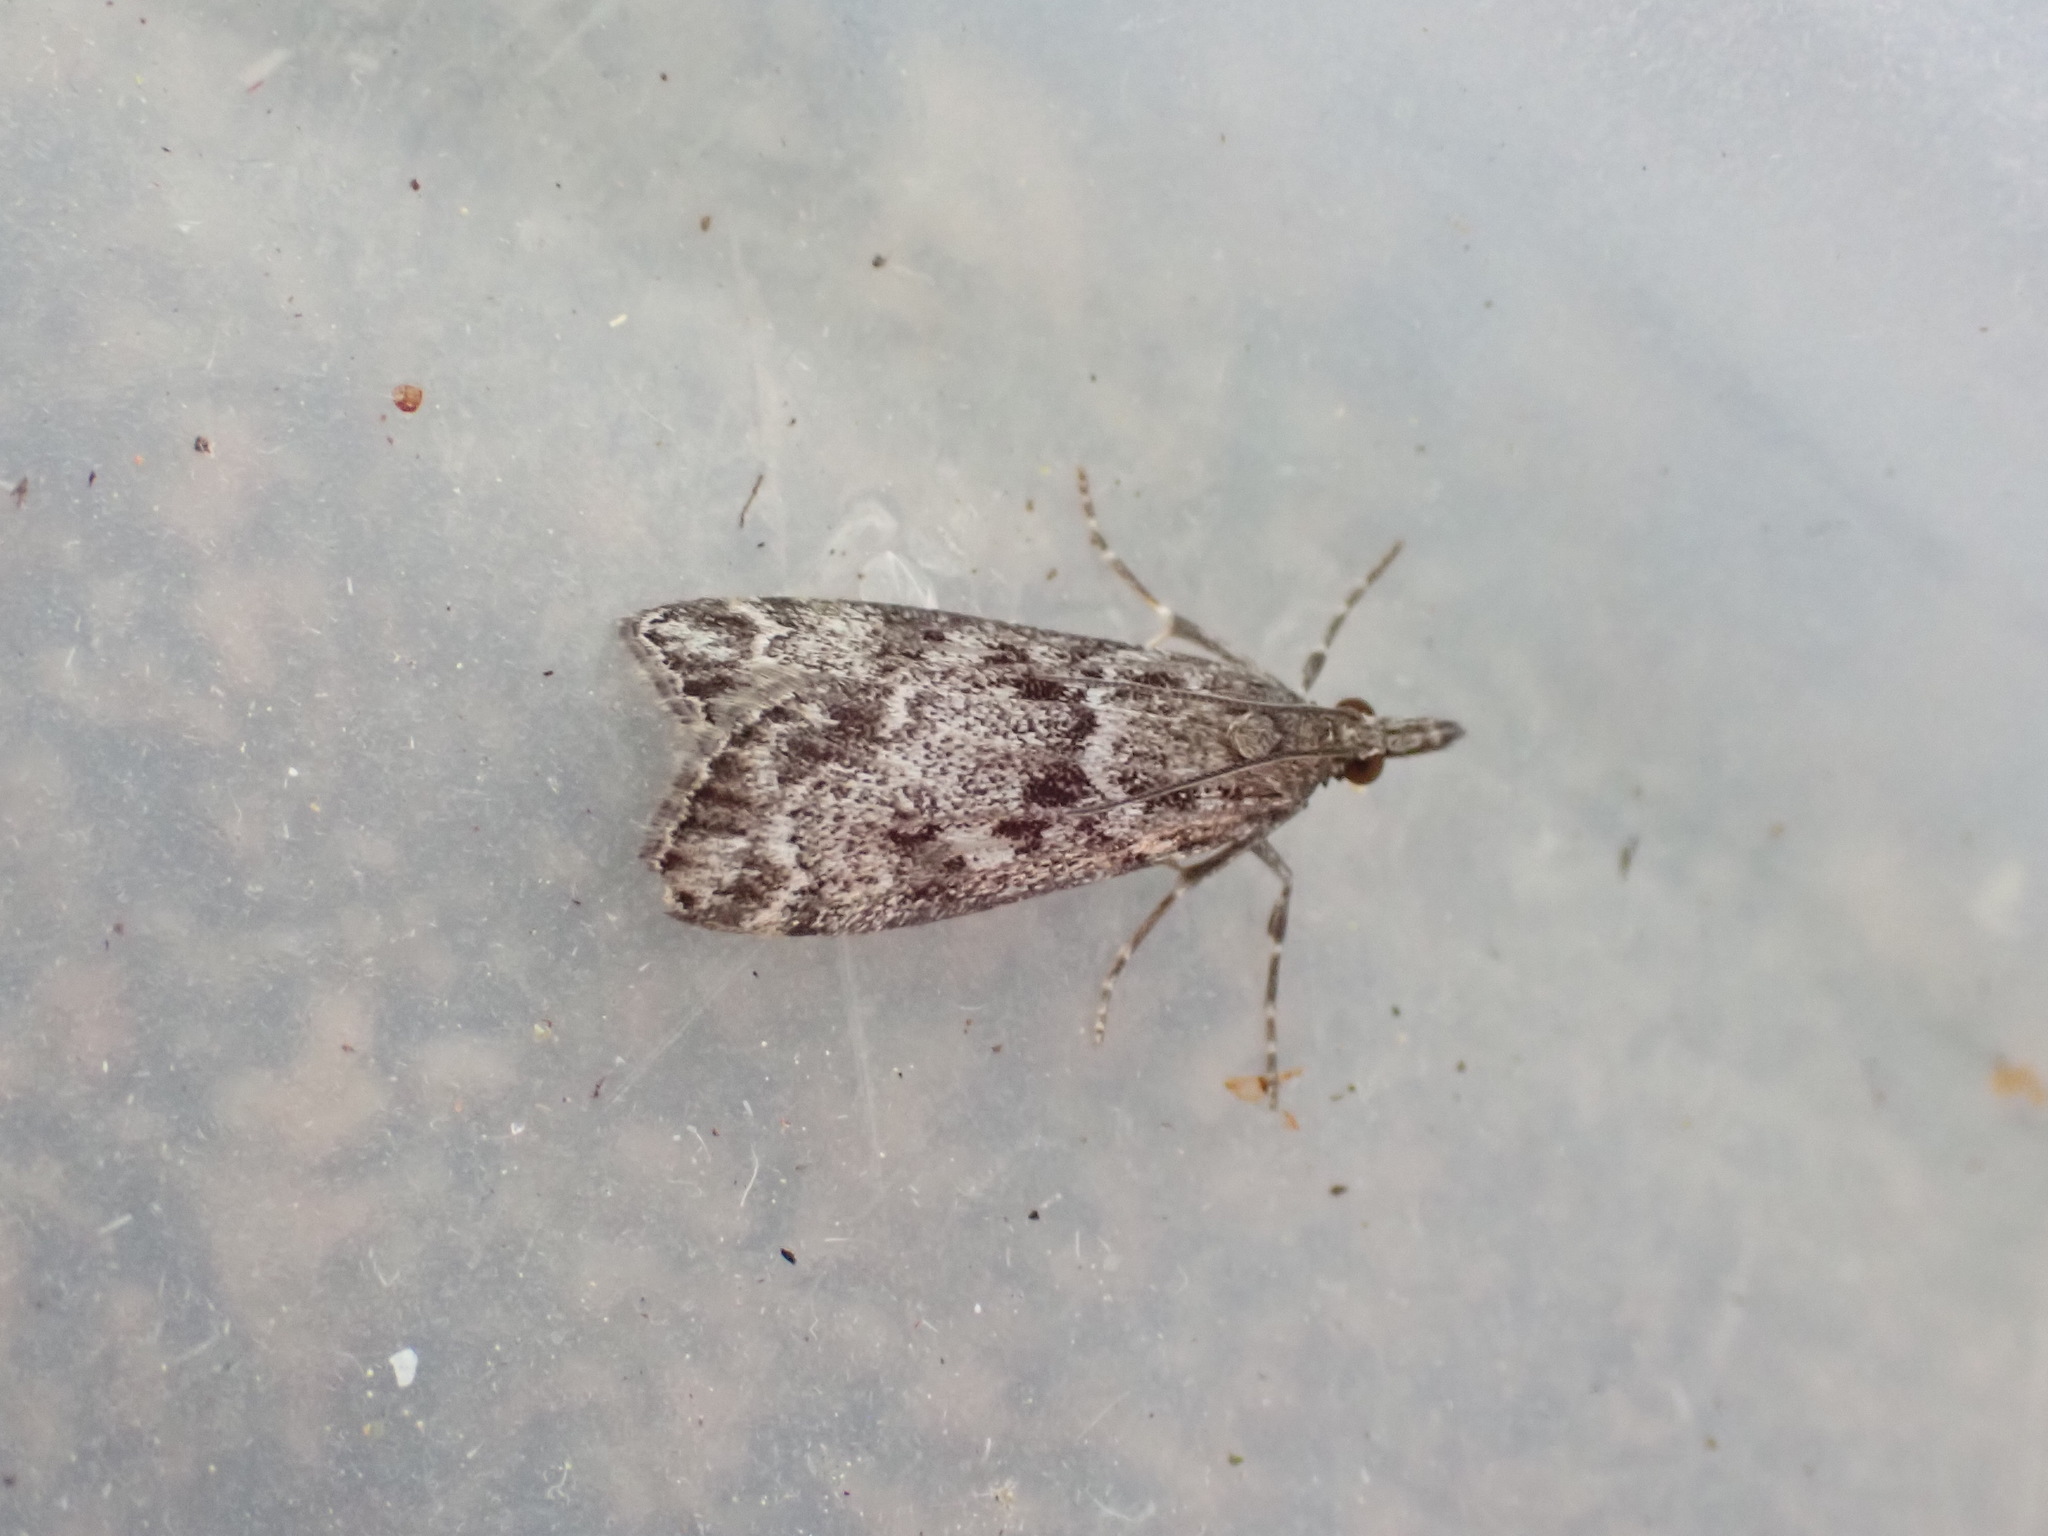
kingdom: Animalia
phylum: Arthropoda
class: Insecta
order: Lepidoptera
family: Crambidae
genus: Eudonia
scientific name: Eudonia heterosalis
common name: Mcdunnough's eudonia
